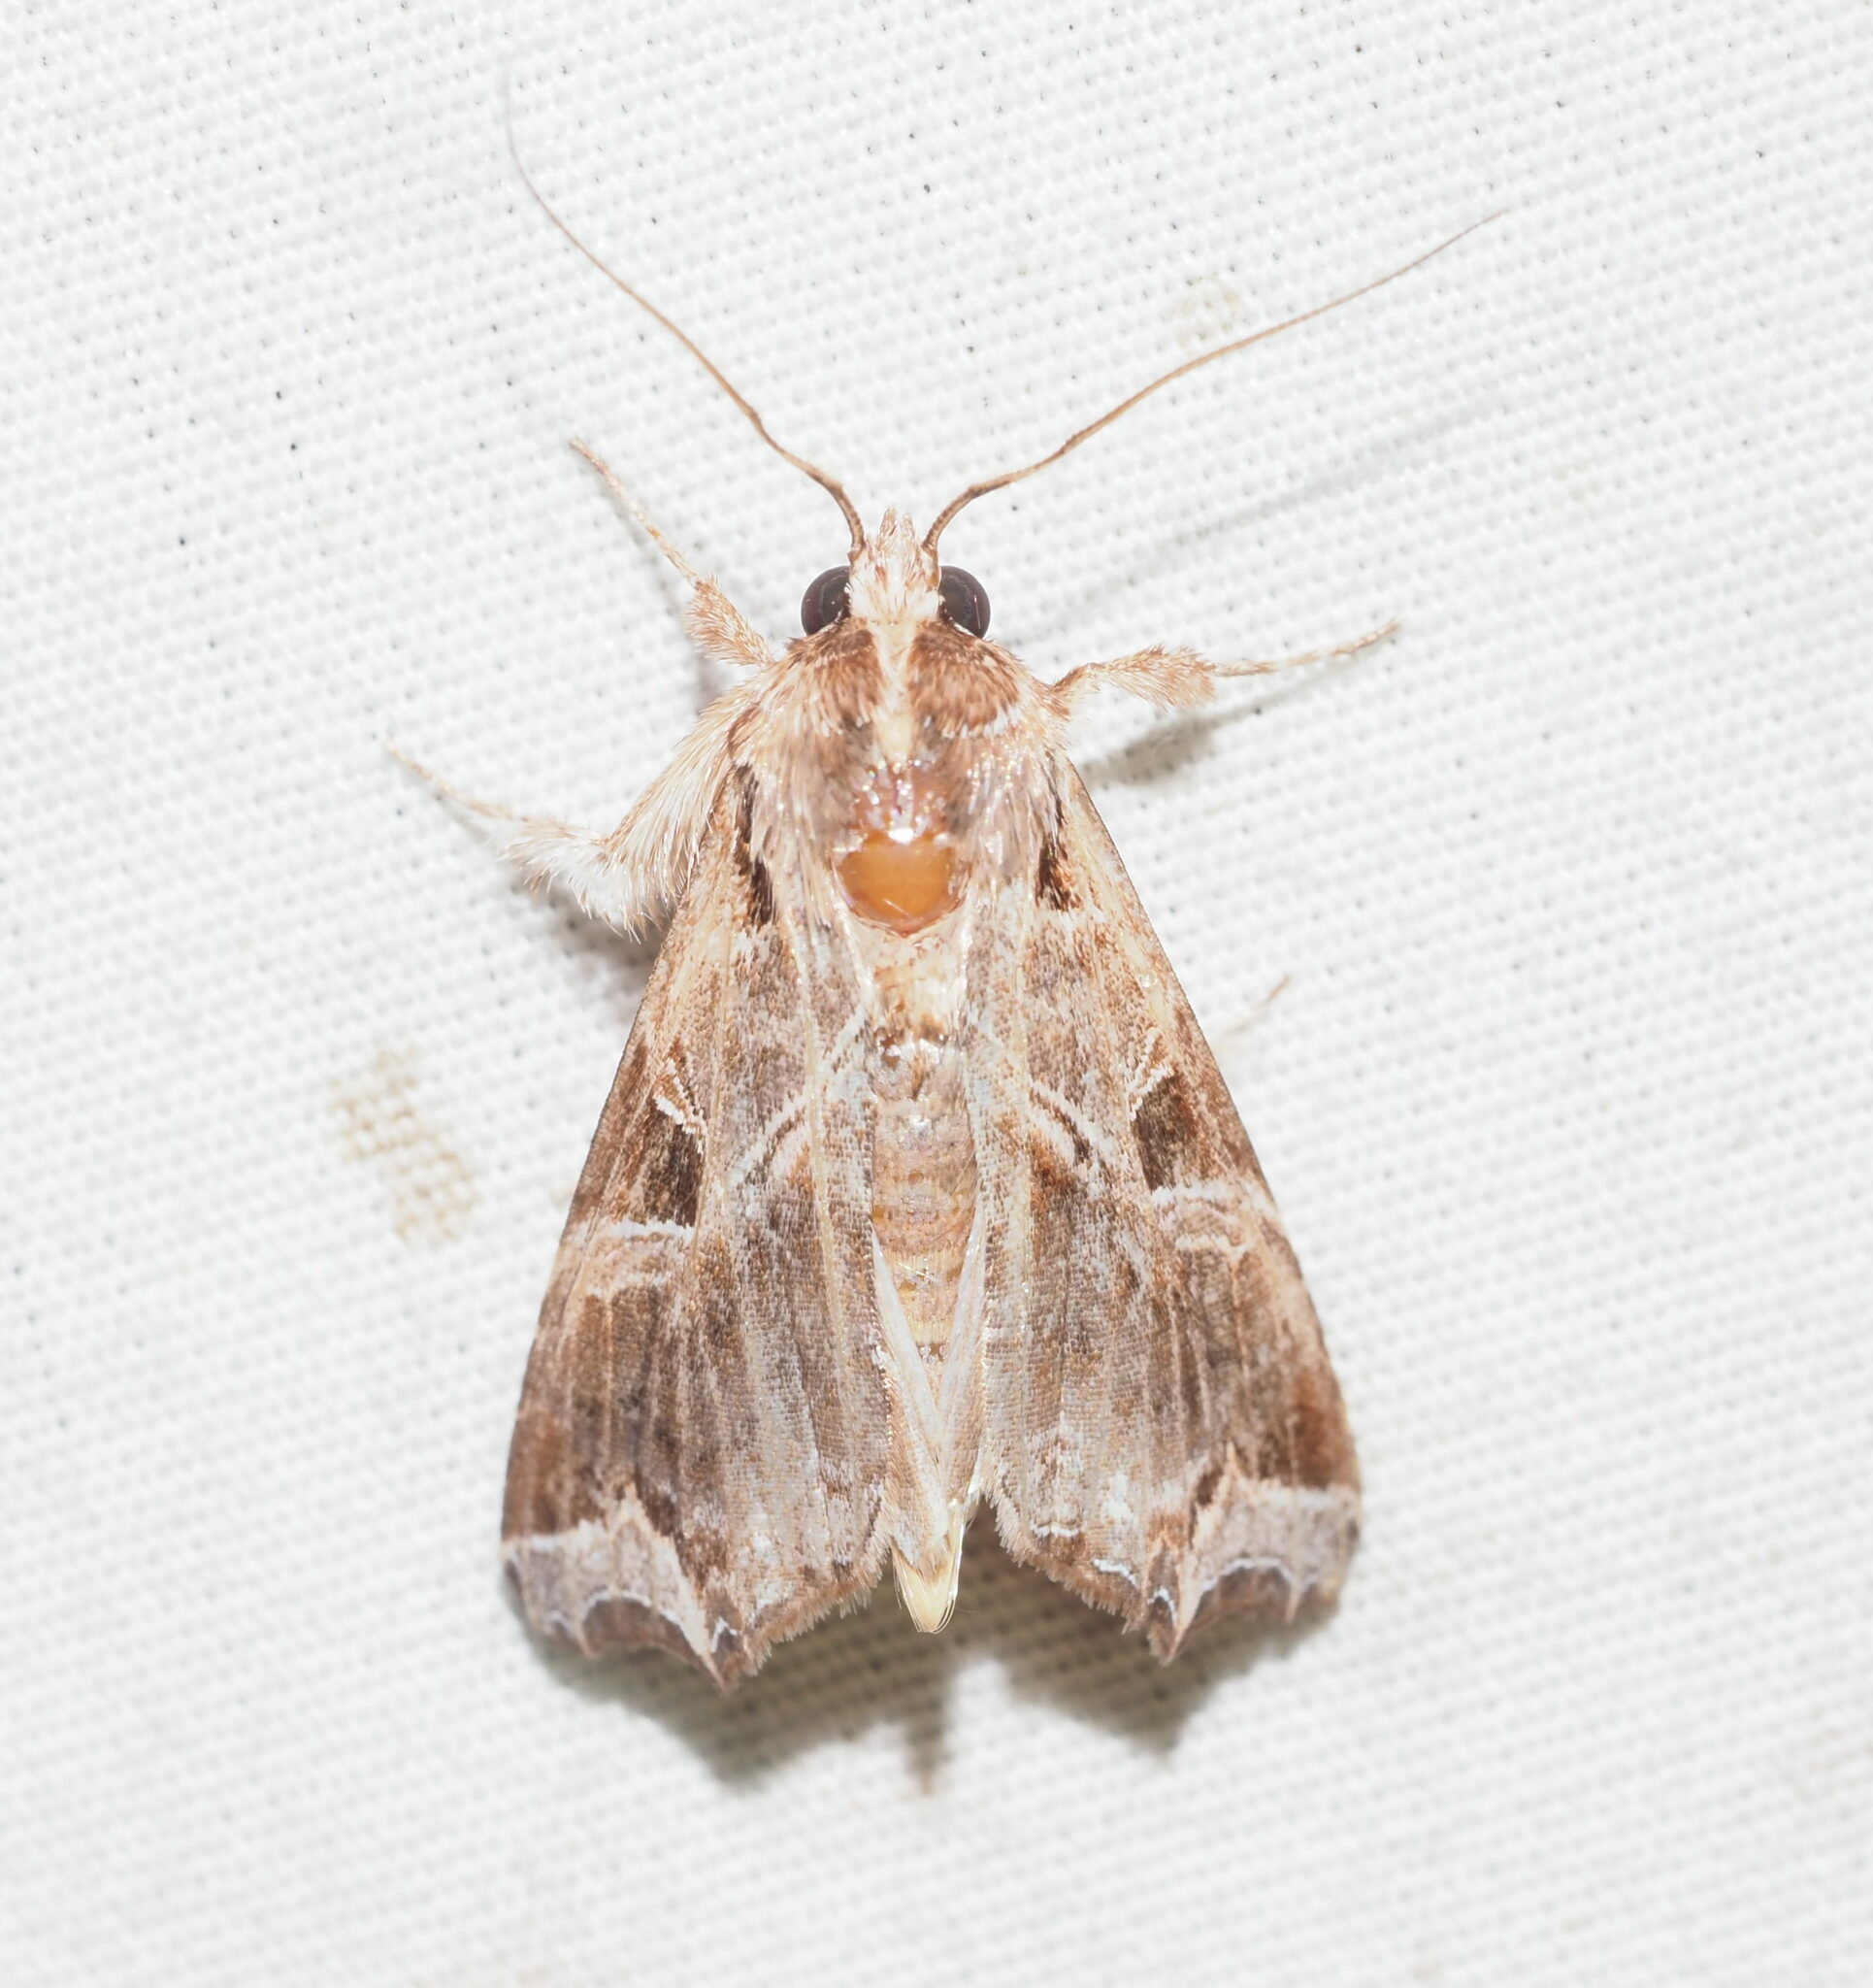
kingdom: Animalia
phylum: Arthropoda
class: Insecta
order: Lepidoptera
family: Noctuidae
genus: Callopistria
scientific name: Callopistria floridensis
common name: Florida fern moth
